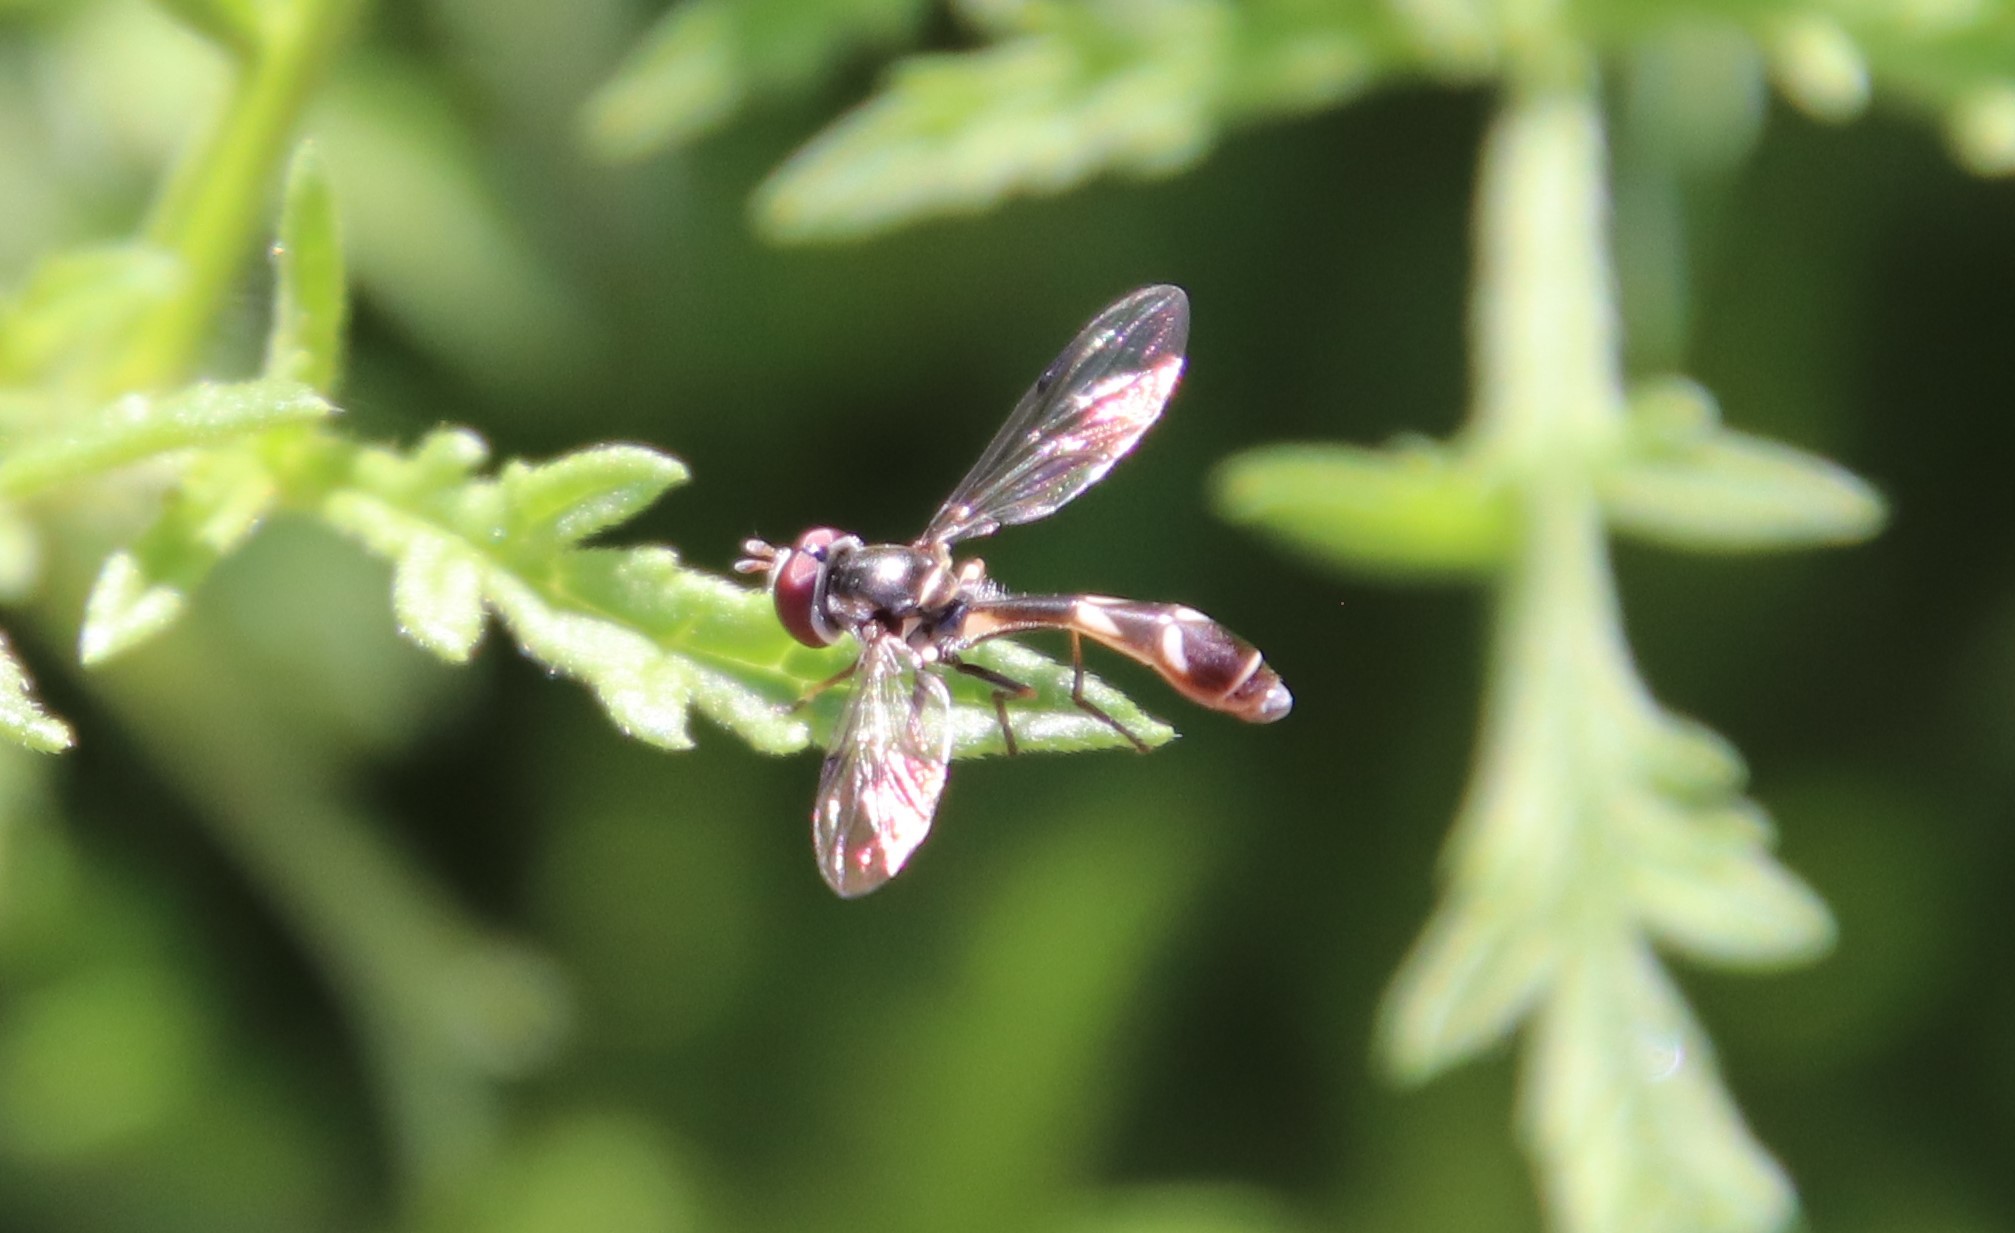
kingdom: Animalia
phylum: Arthropoda
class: Insecta
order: Diptera
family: Syrphidae
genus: Dioprosopa
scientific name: Dioprosopa clavatus
